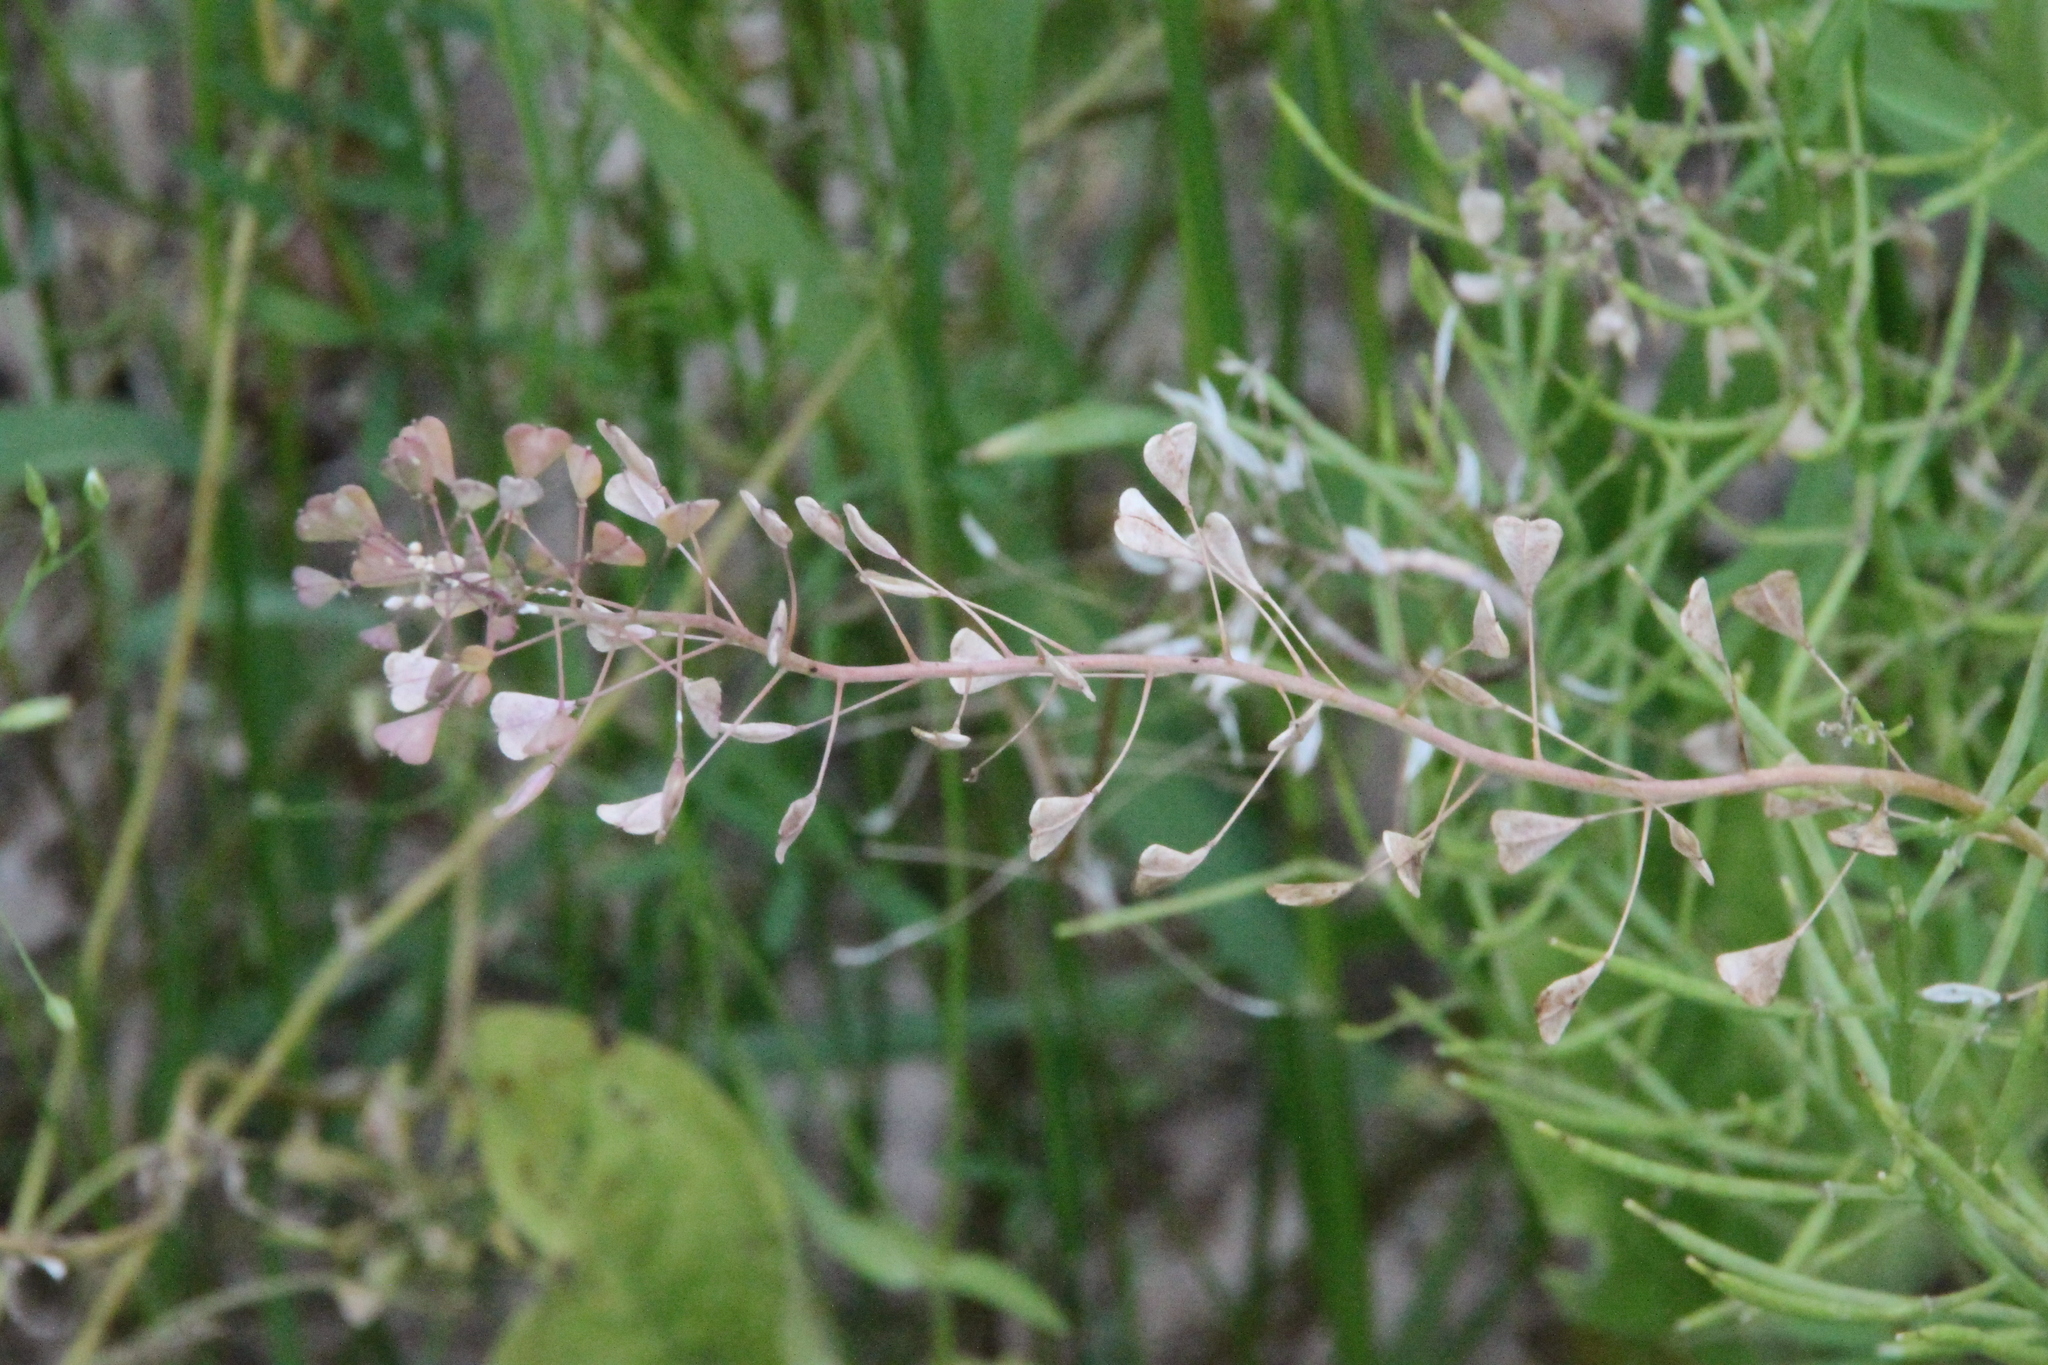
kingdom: Plantae
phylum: Tracheophyta
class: Magnoliopsida
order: Brassicales
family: Brassicaceae
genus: Capsella
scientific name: Capsella bursa-pastoris
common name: Shepherd's purse
